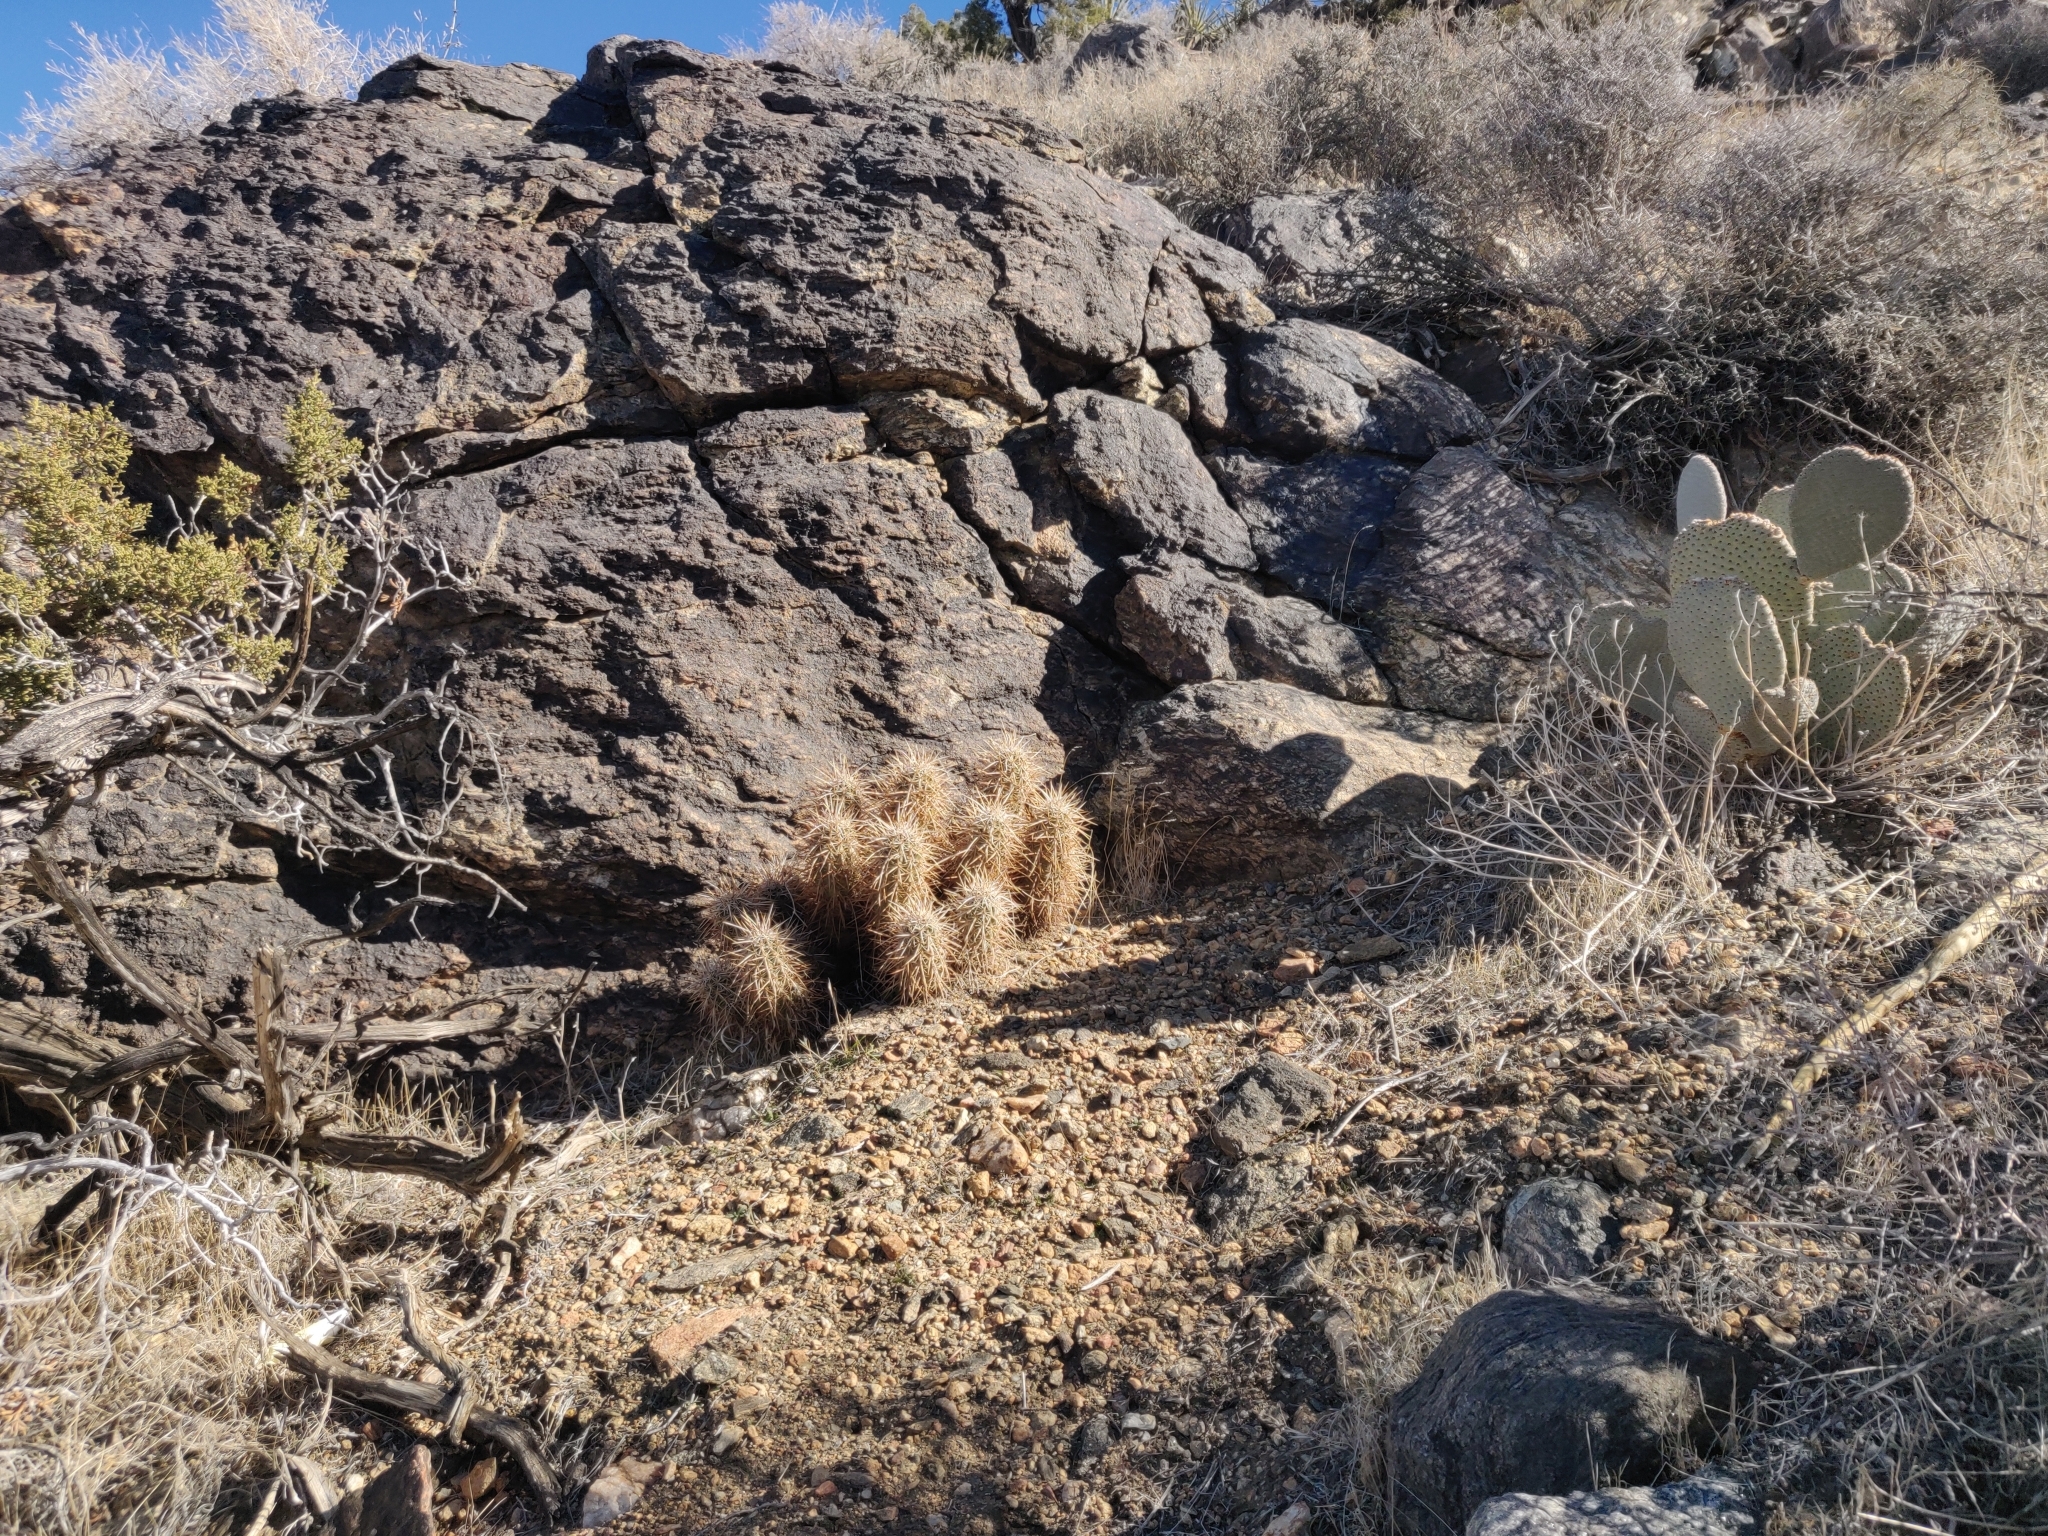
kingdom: Plantae
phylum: Tracheophyta
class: Magnoliopsida
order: Caryophyllales
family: Cactaceae
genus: Echinocereus
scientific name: Echinocereus engelmannii
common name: Engelmann's hedgehog cactus
